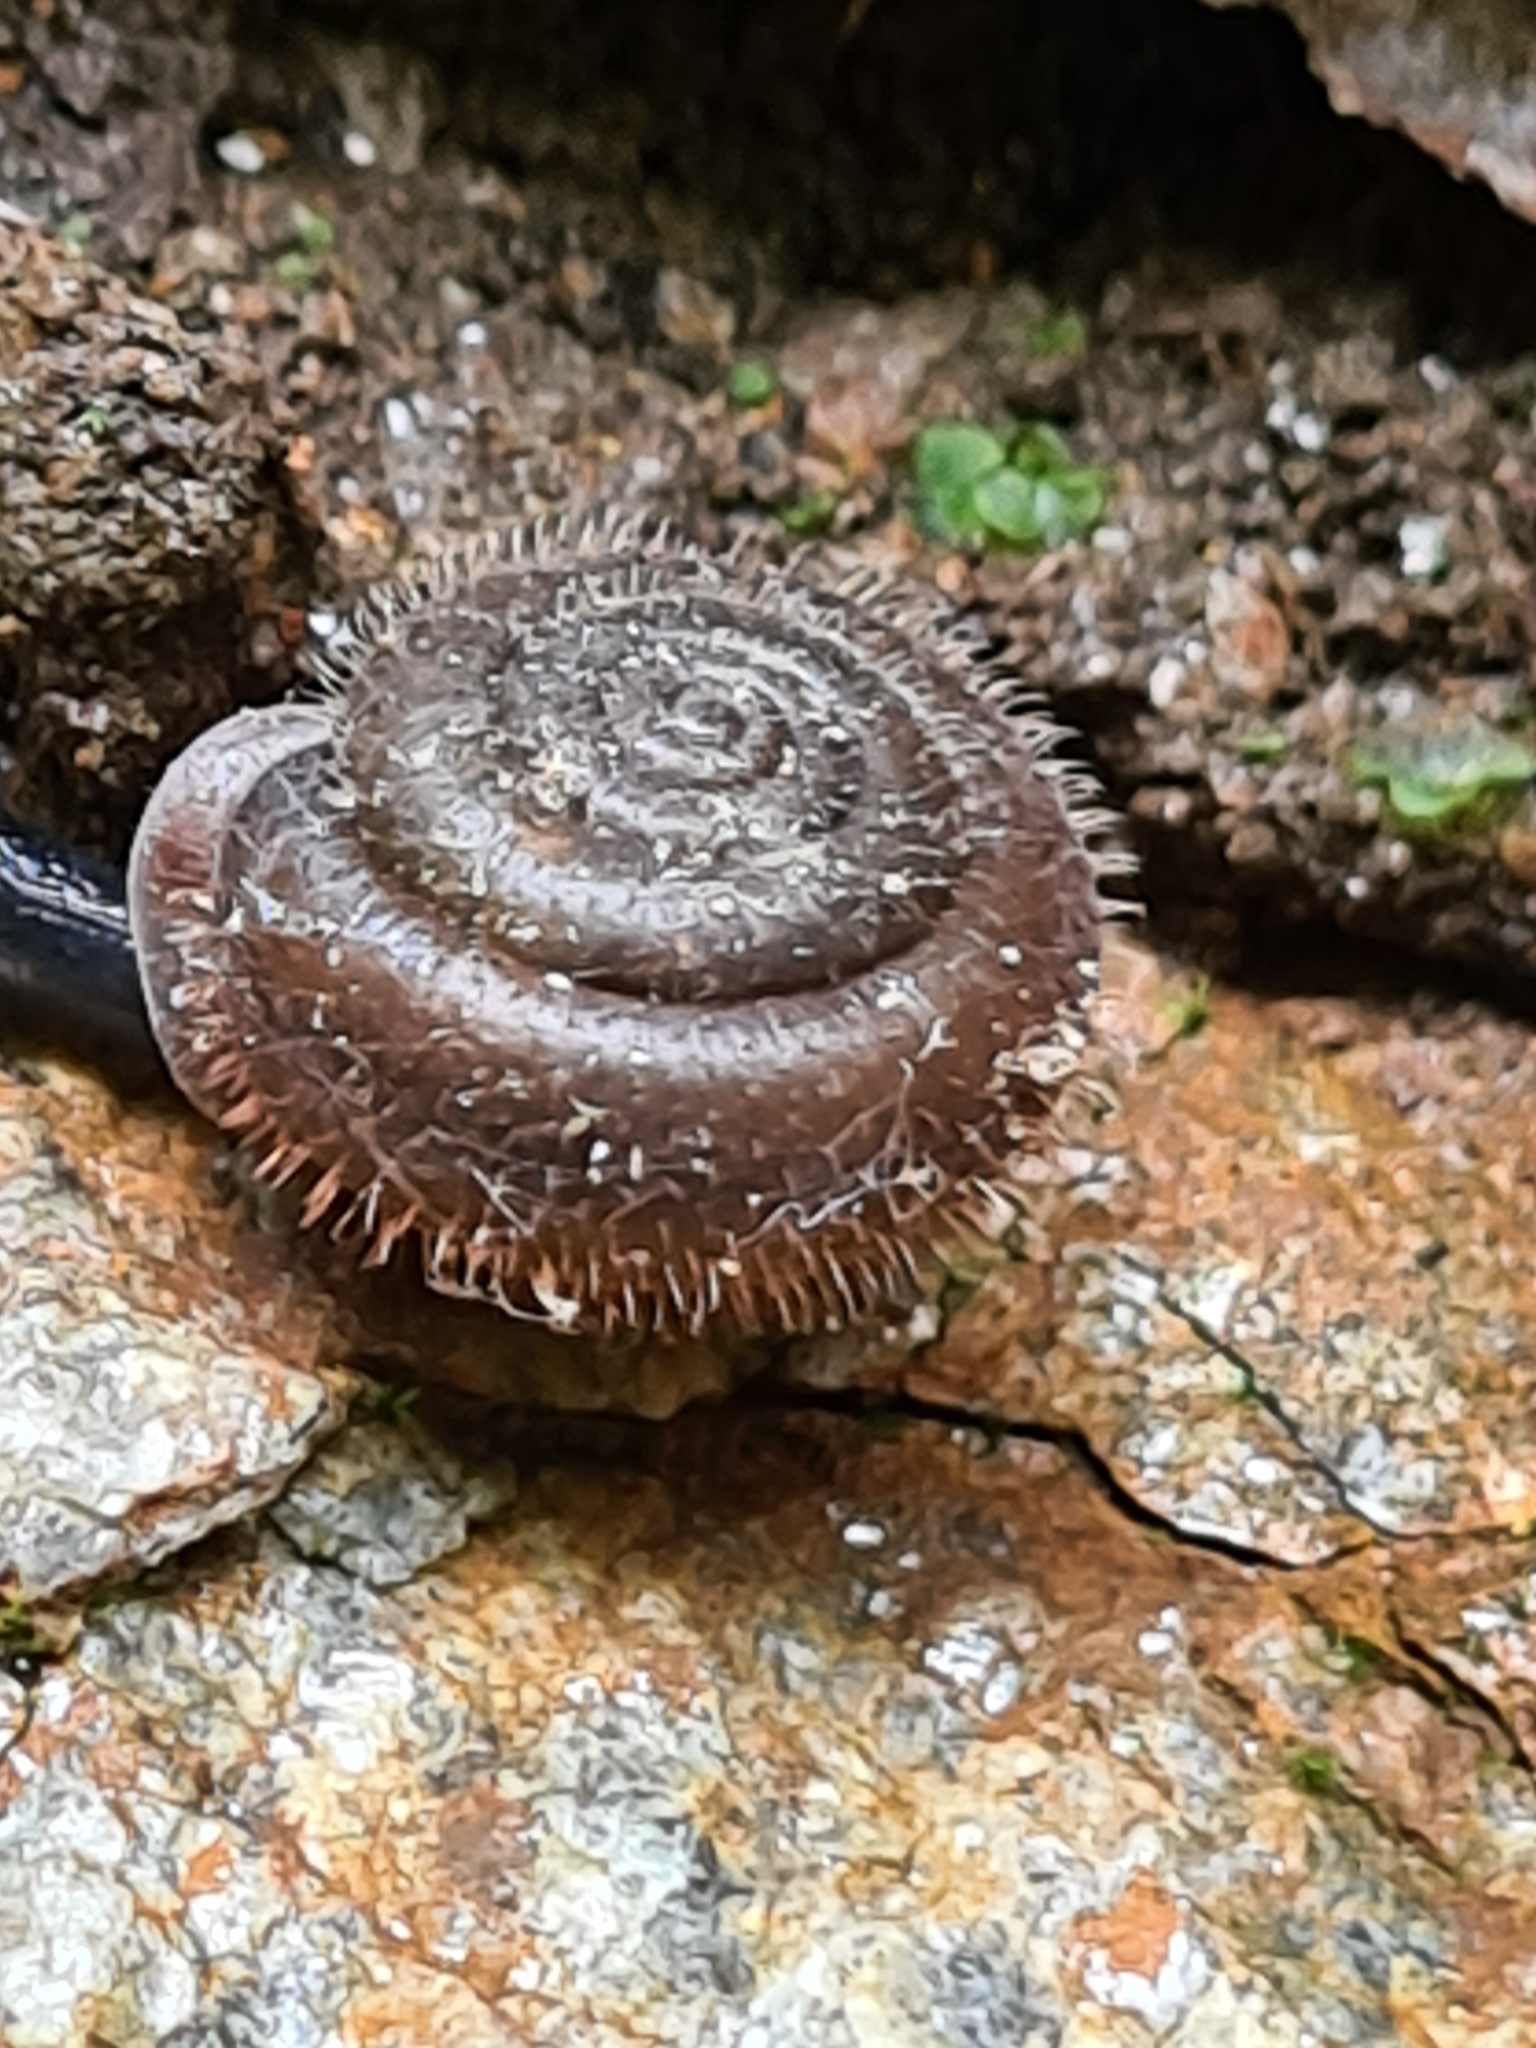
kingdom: Animalia
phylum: Mollusca
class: Gastropoda
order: Stylommatophora
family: Helicidae
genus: Isognomostoma
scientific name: Isognomostoma isognomostomos
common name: Mask snail
